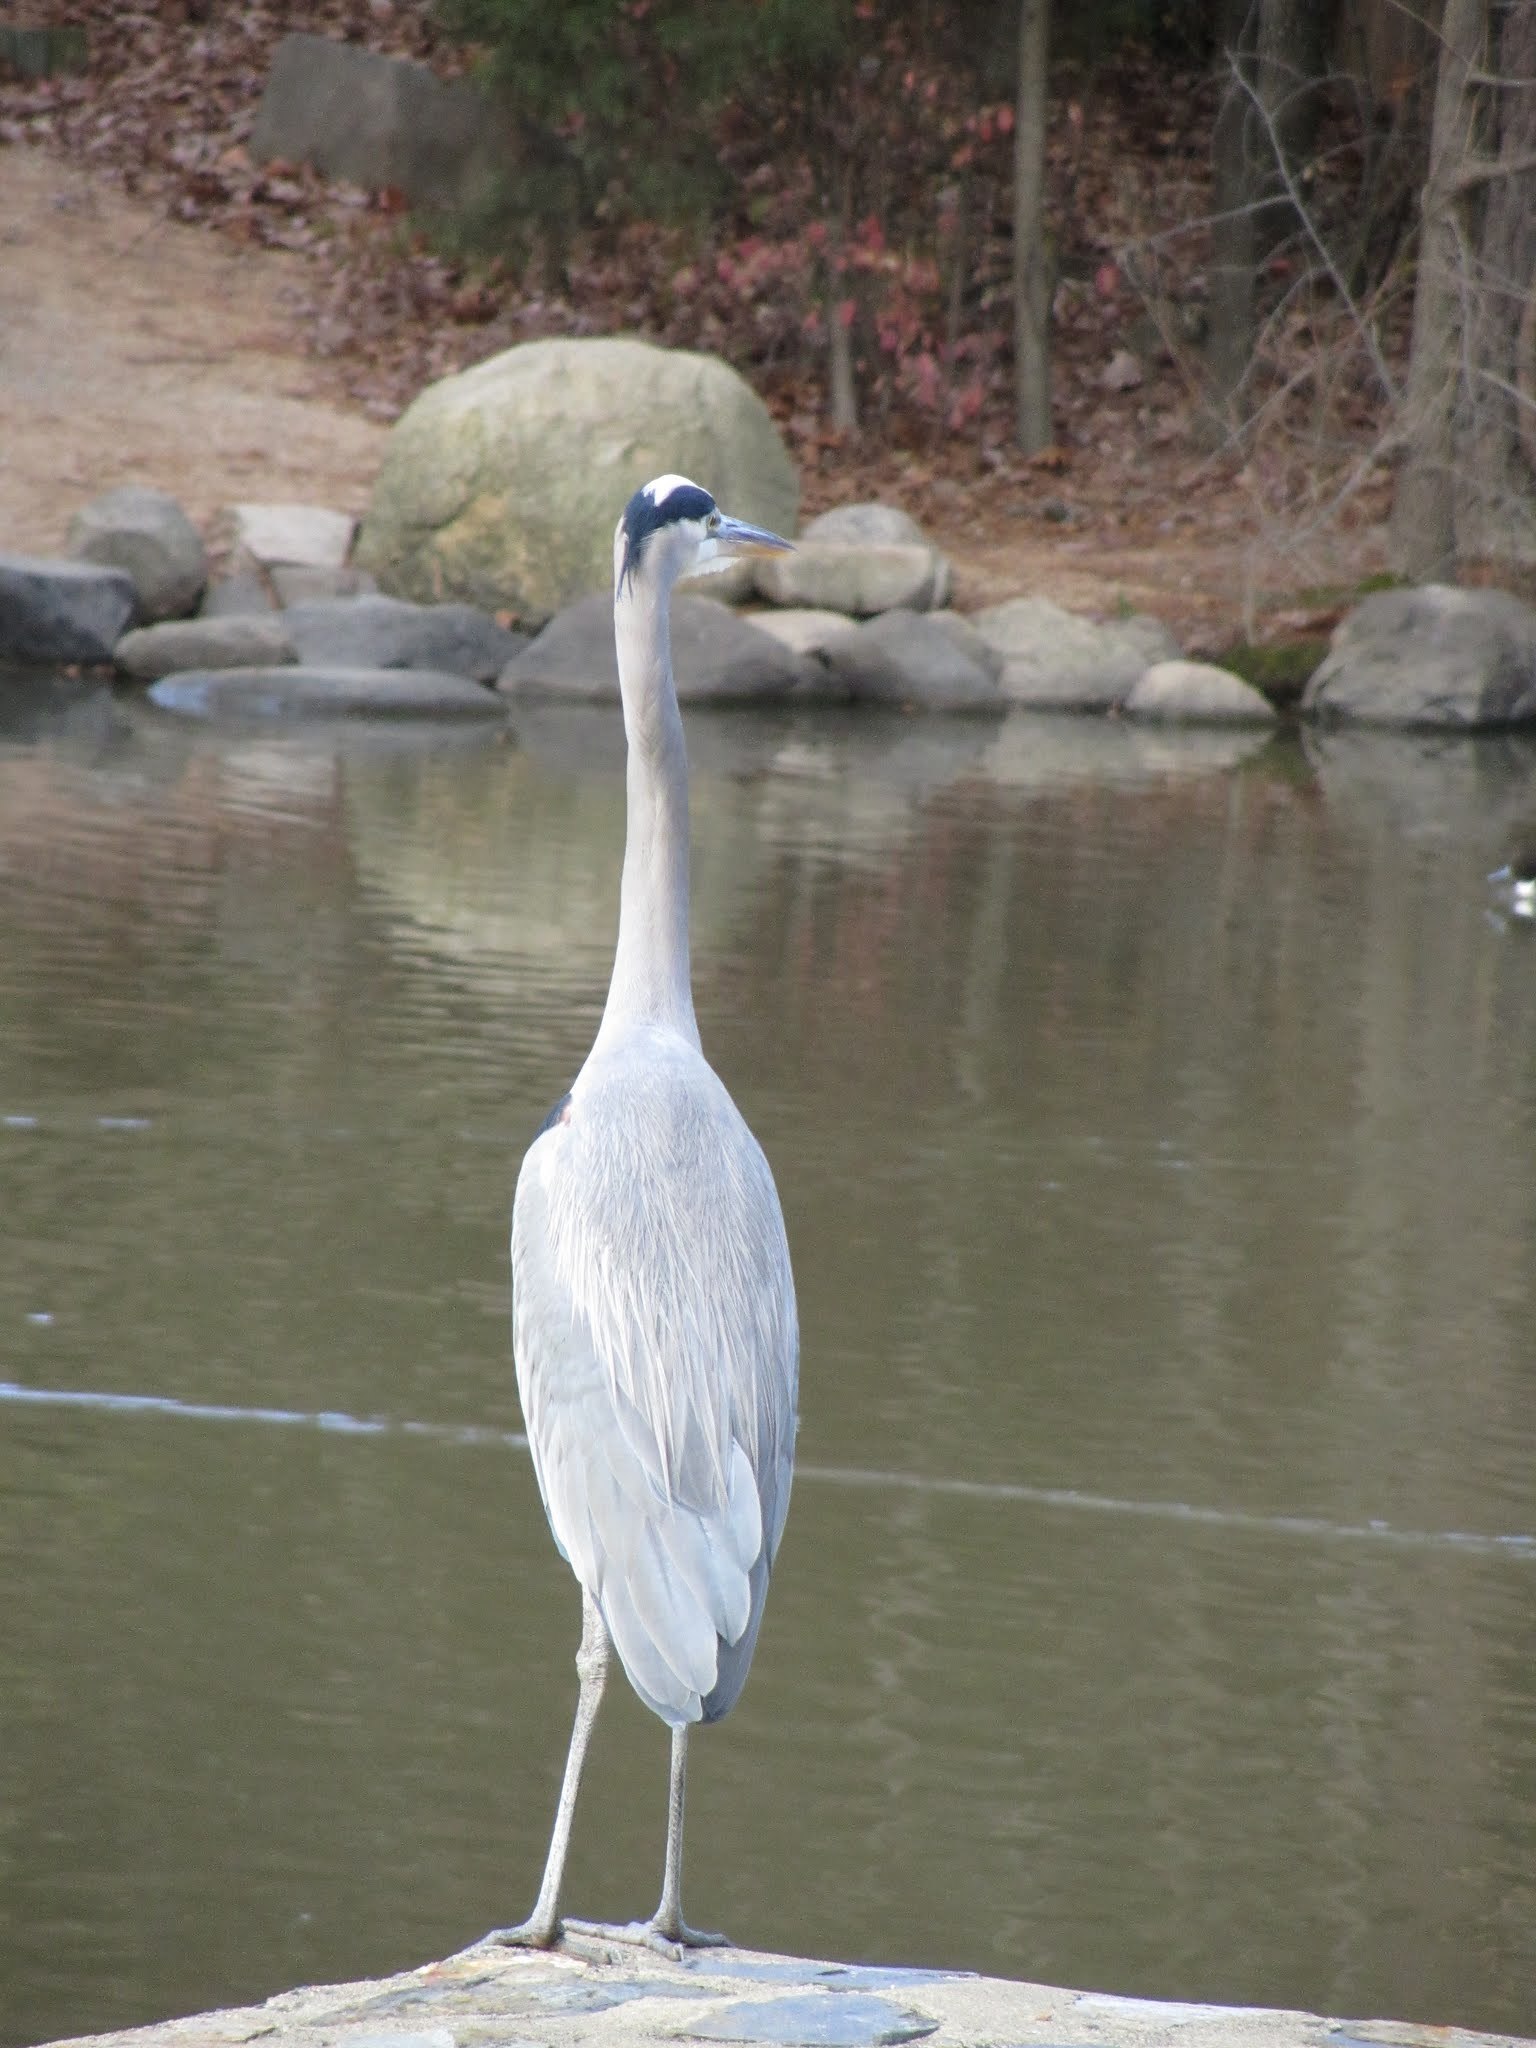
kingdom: Animalia
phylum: Chordata
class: Aves
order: Pelecaniformes
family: Ardeidae
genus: Ardea
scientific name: Ardea herodias
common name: Great blue heron
